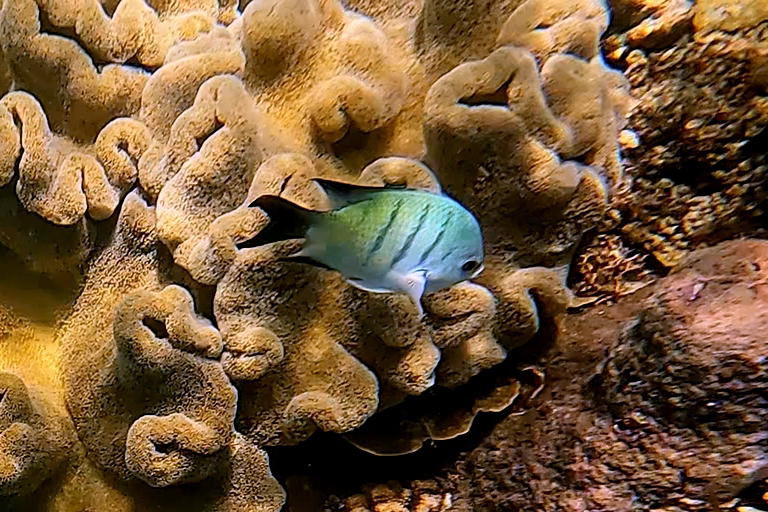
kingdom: Animalia
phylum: Chordata
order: Perciformes
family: Pomacentridae
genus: Abudefduf
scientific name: Abudefduf whitleyi
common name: Whitley's seargent
